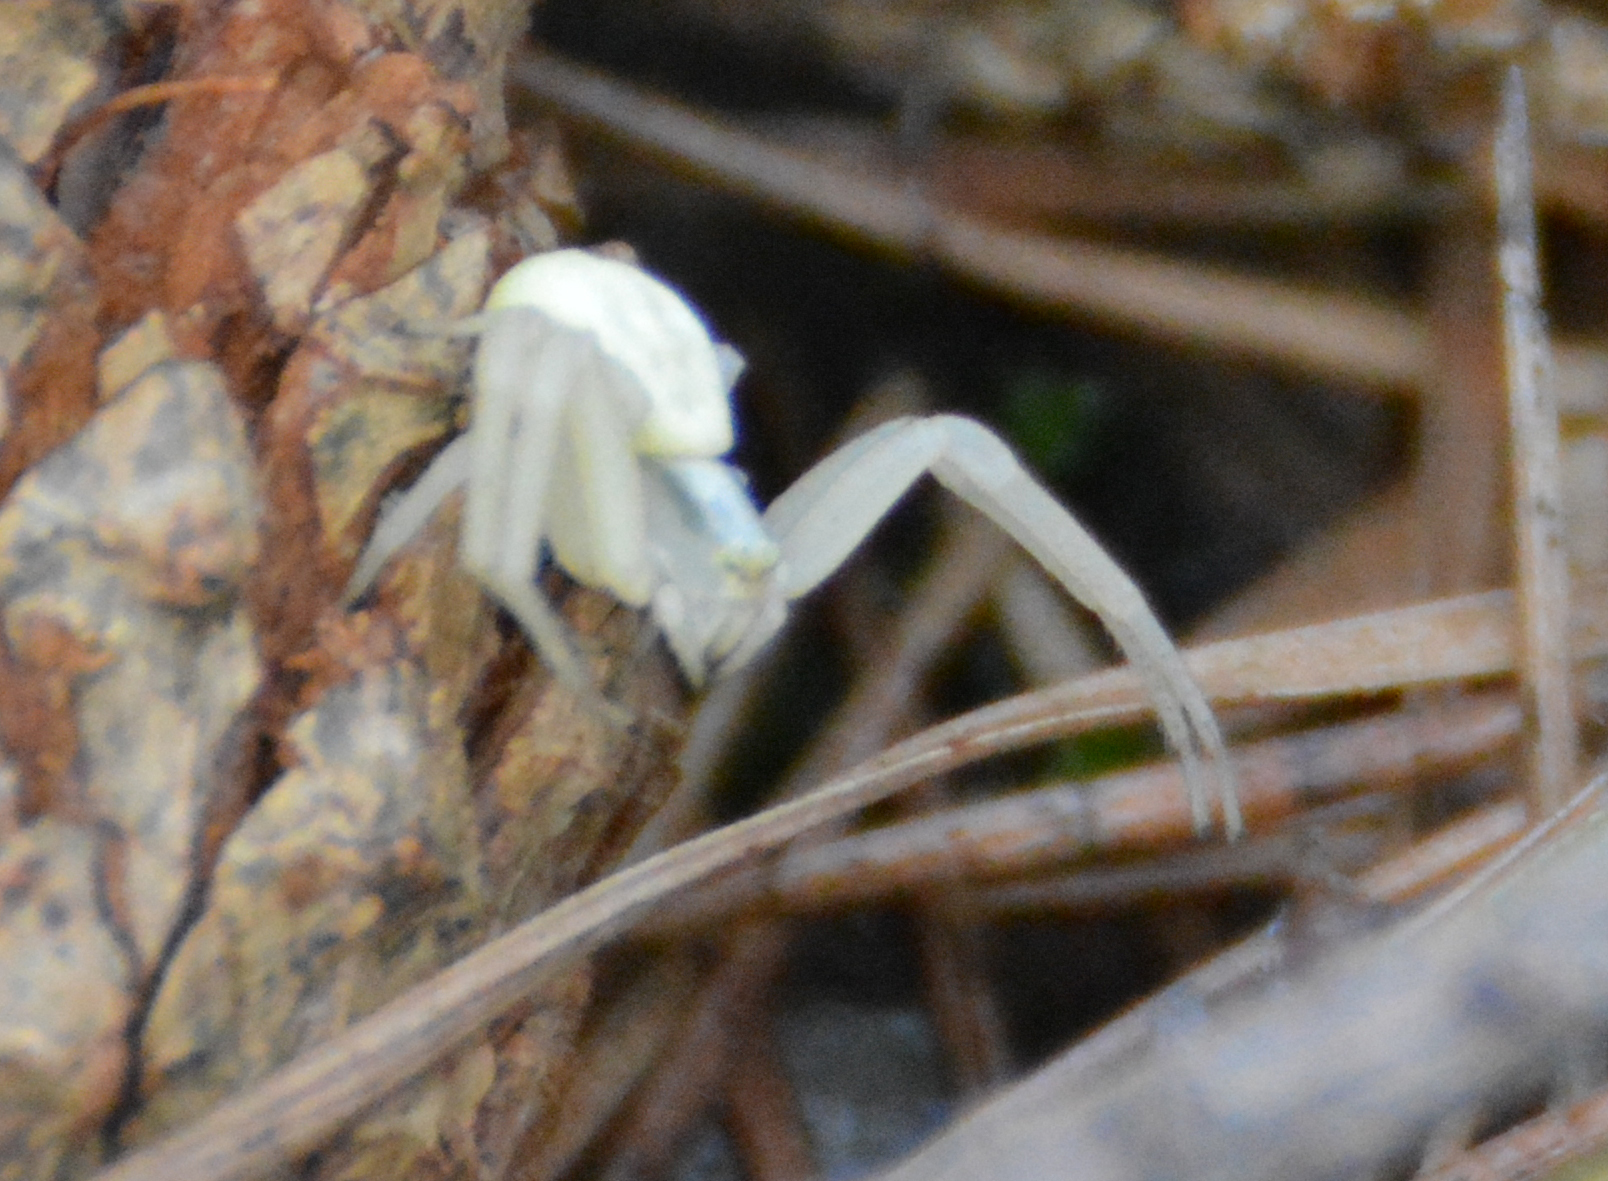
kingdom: Animalia
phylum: Arthropoda
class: Arachnida
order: Araneae
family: Thomisidae
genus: Misumena
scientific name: Misumena vatia
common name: Goldenrod crab spider
